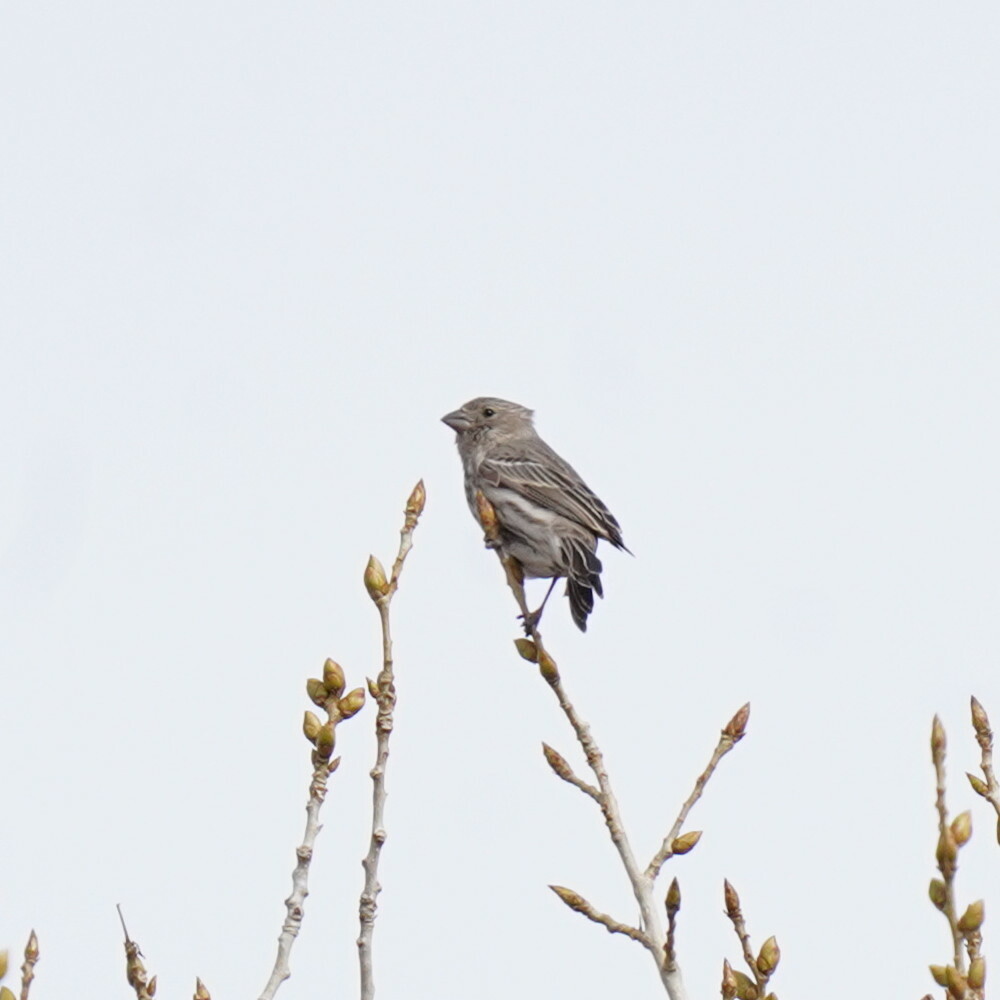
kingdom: Animalia
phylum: Chordata
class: Aves
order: Passeriformes
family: Fringillidae
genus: Haemorhous
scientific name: Haemorhous mexicanus
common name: House finch
